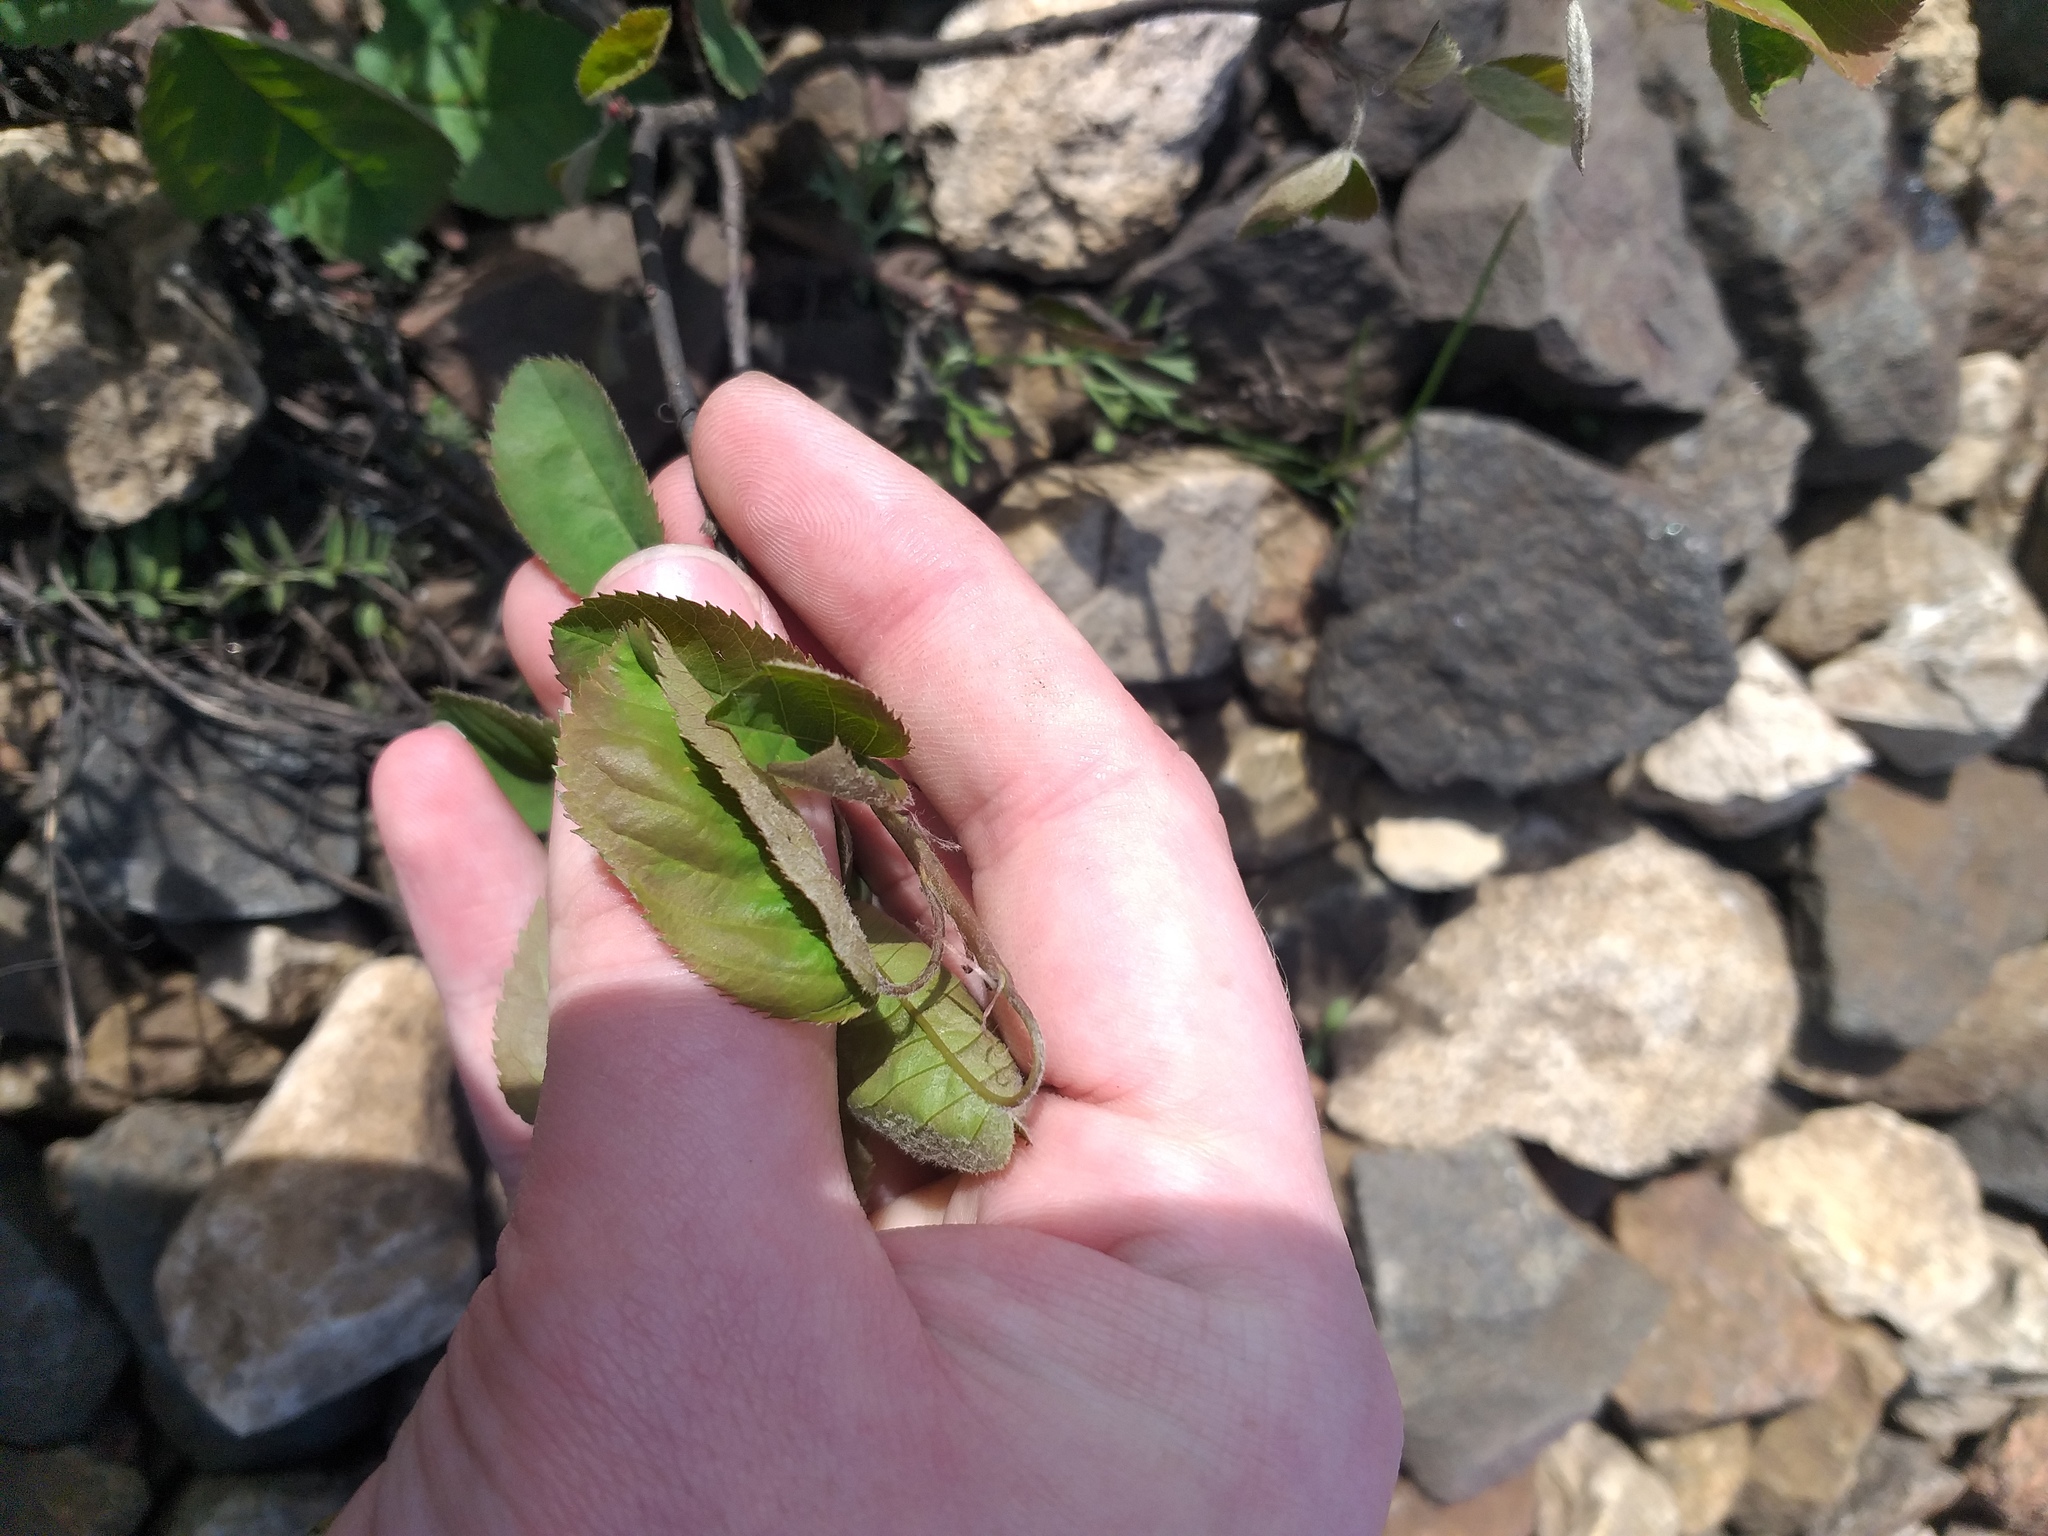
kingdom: Plantae
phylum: Tracheophyta
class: Magnoliopsida
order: Rosales
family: Rosaceae
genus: Amelanchier
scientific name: Amelanchier
